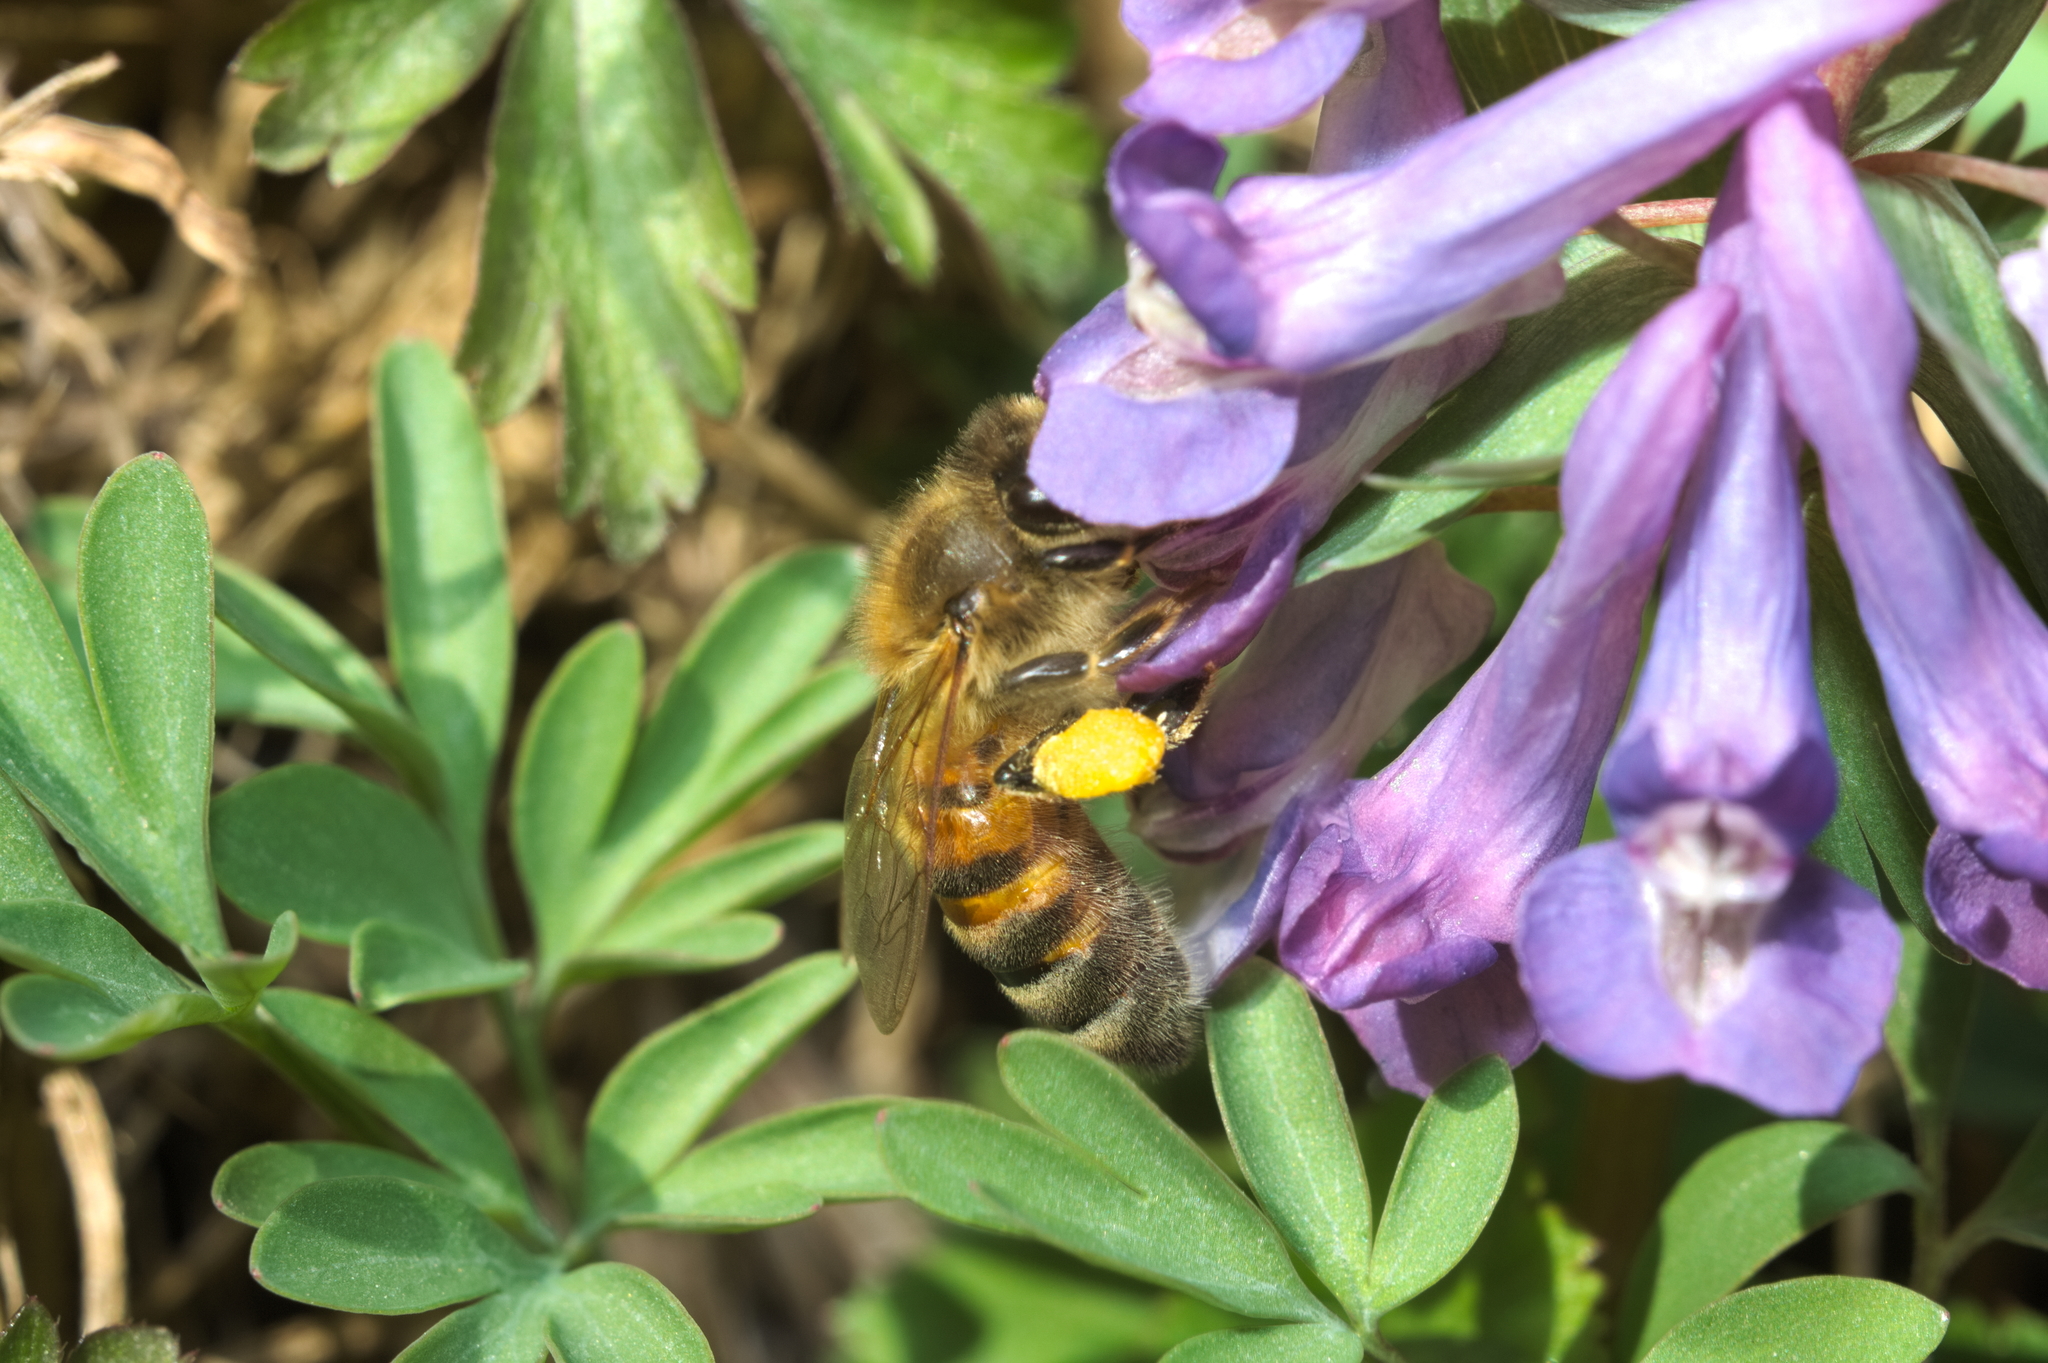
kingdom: Animalia
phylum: Arthropoda
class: Insecta
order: Hymenoptera
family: Apidae
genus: Apis
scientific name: Apis mellifera
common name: Honey bee
